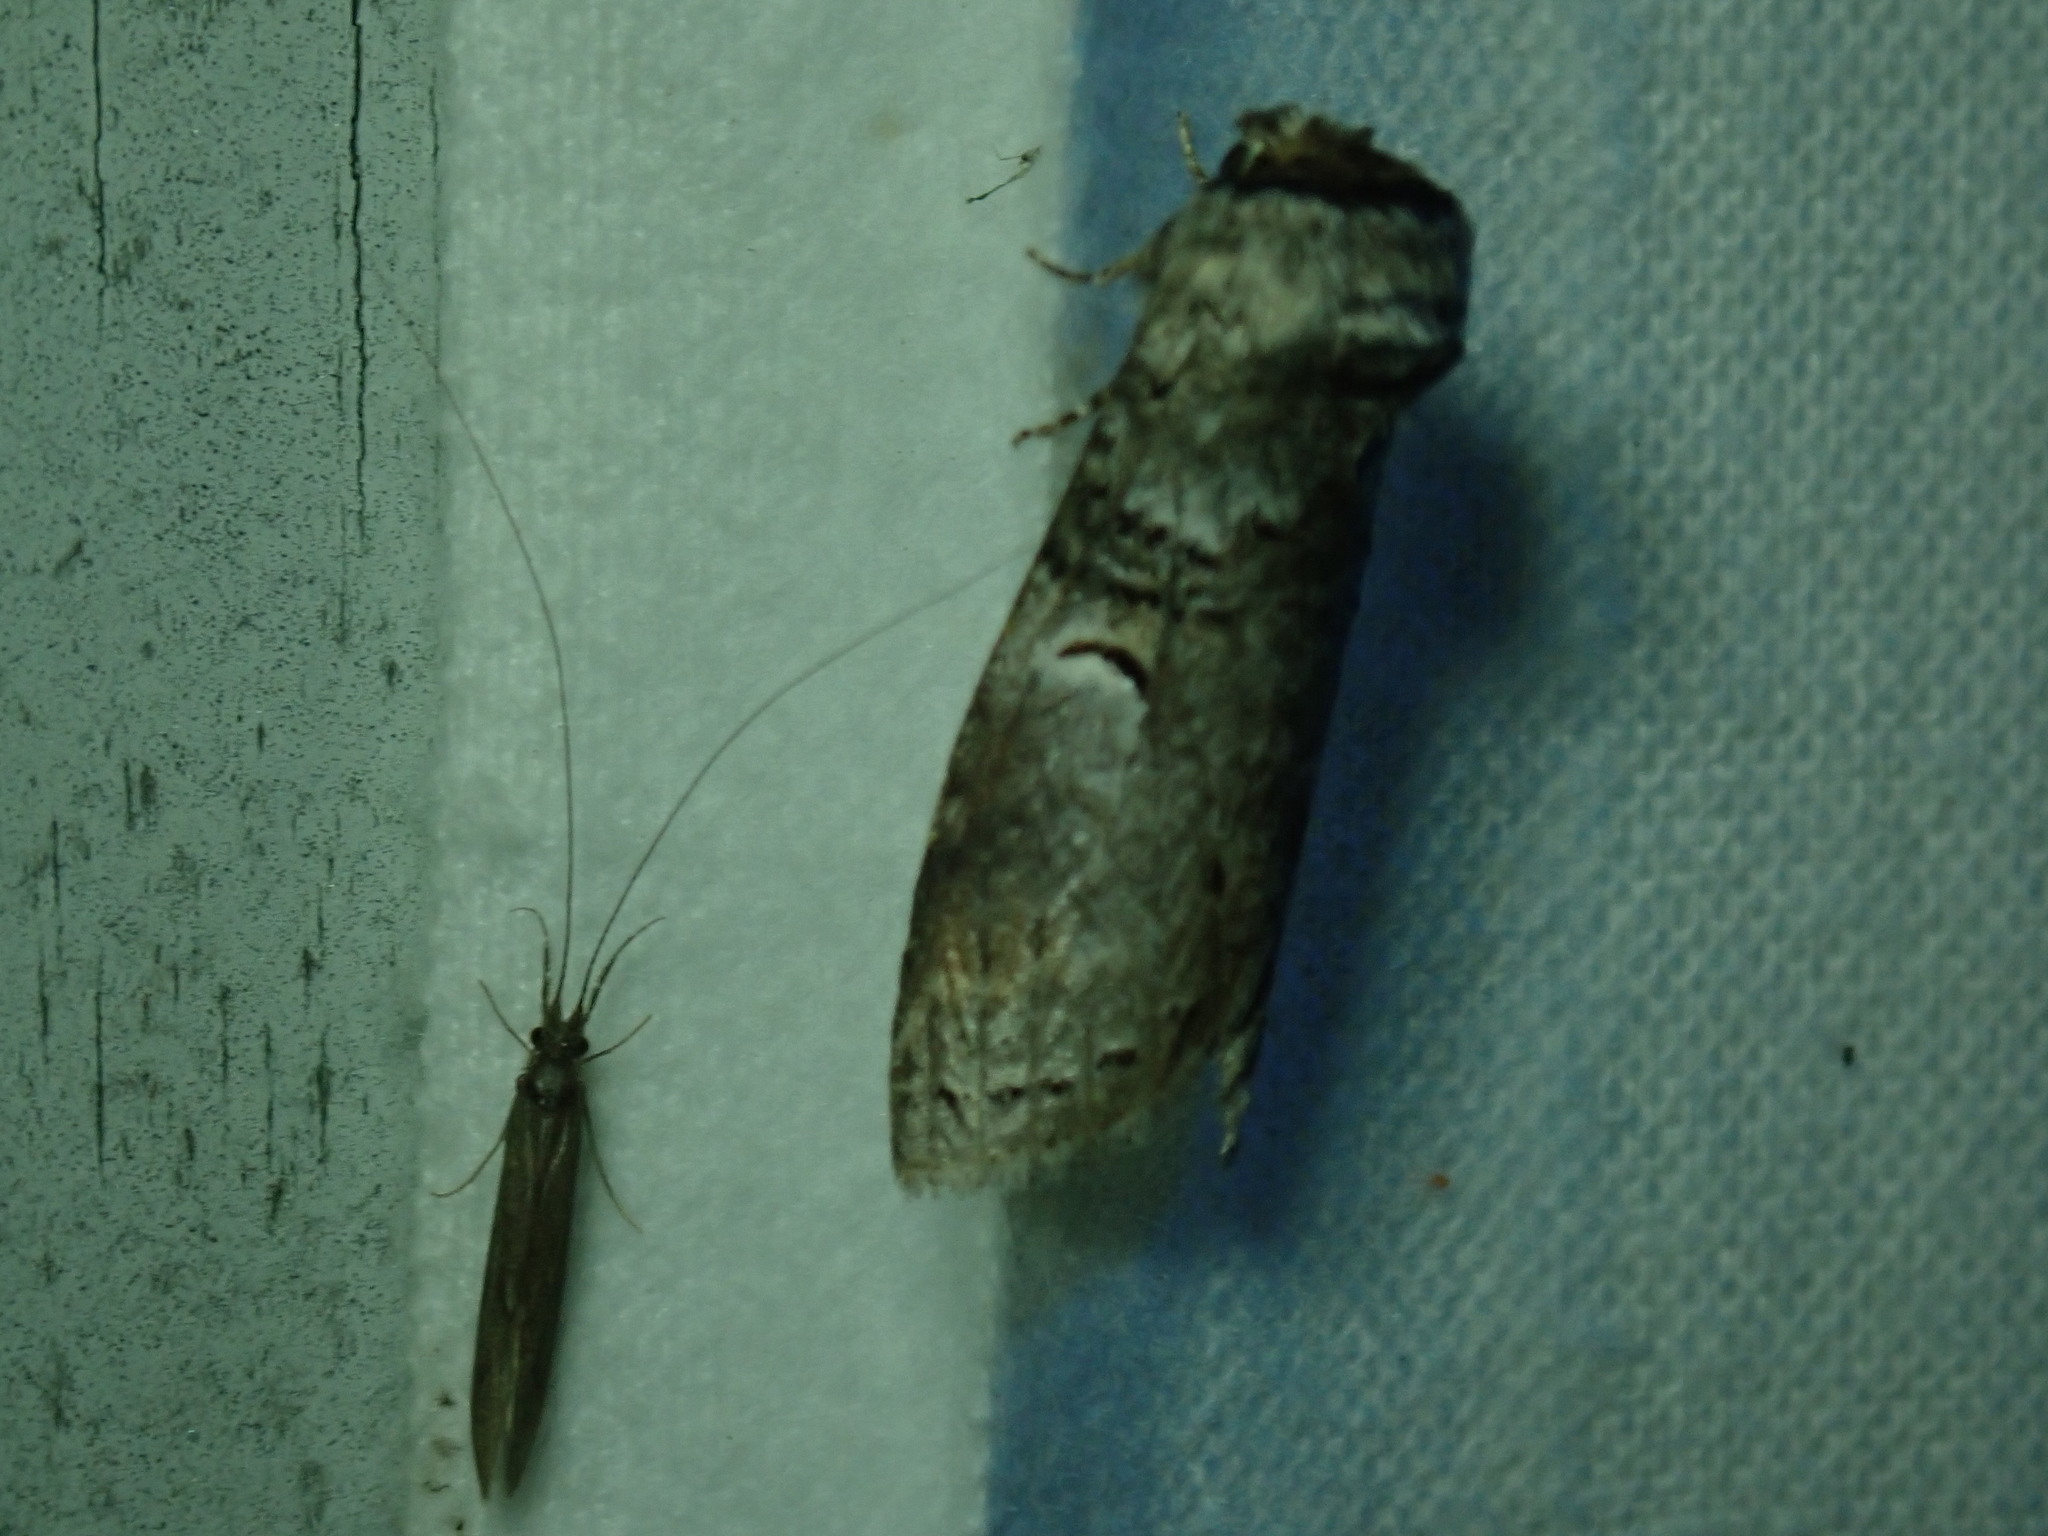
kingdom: Animalia
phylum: Arthropoda
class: Insecta
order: Lepidoptera
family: Notodontidae
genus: Ellida
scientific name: Ellida caniplaga
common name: Linden prominent
